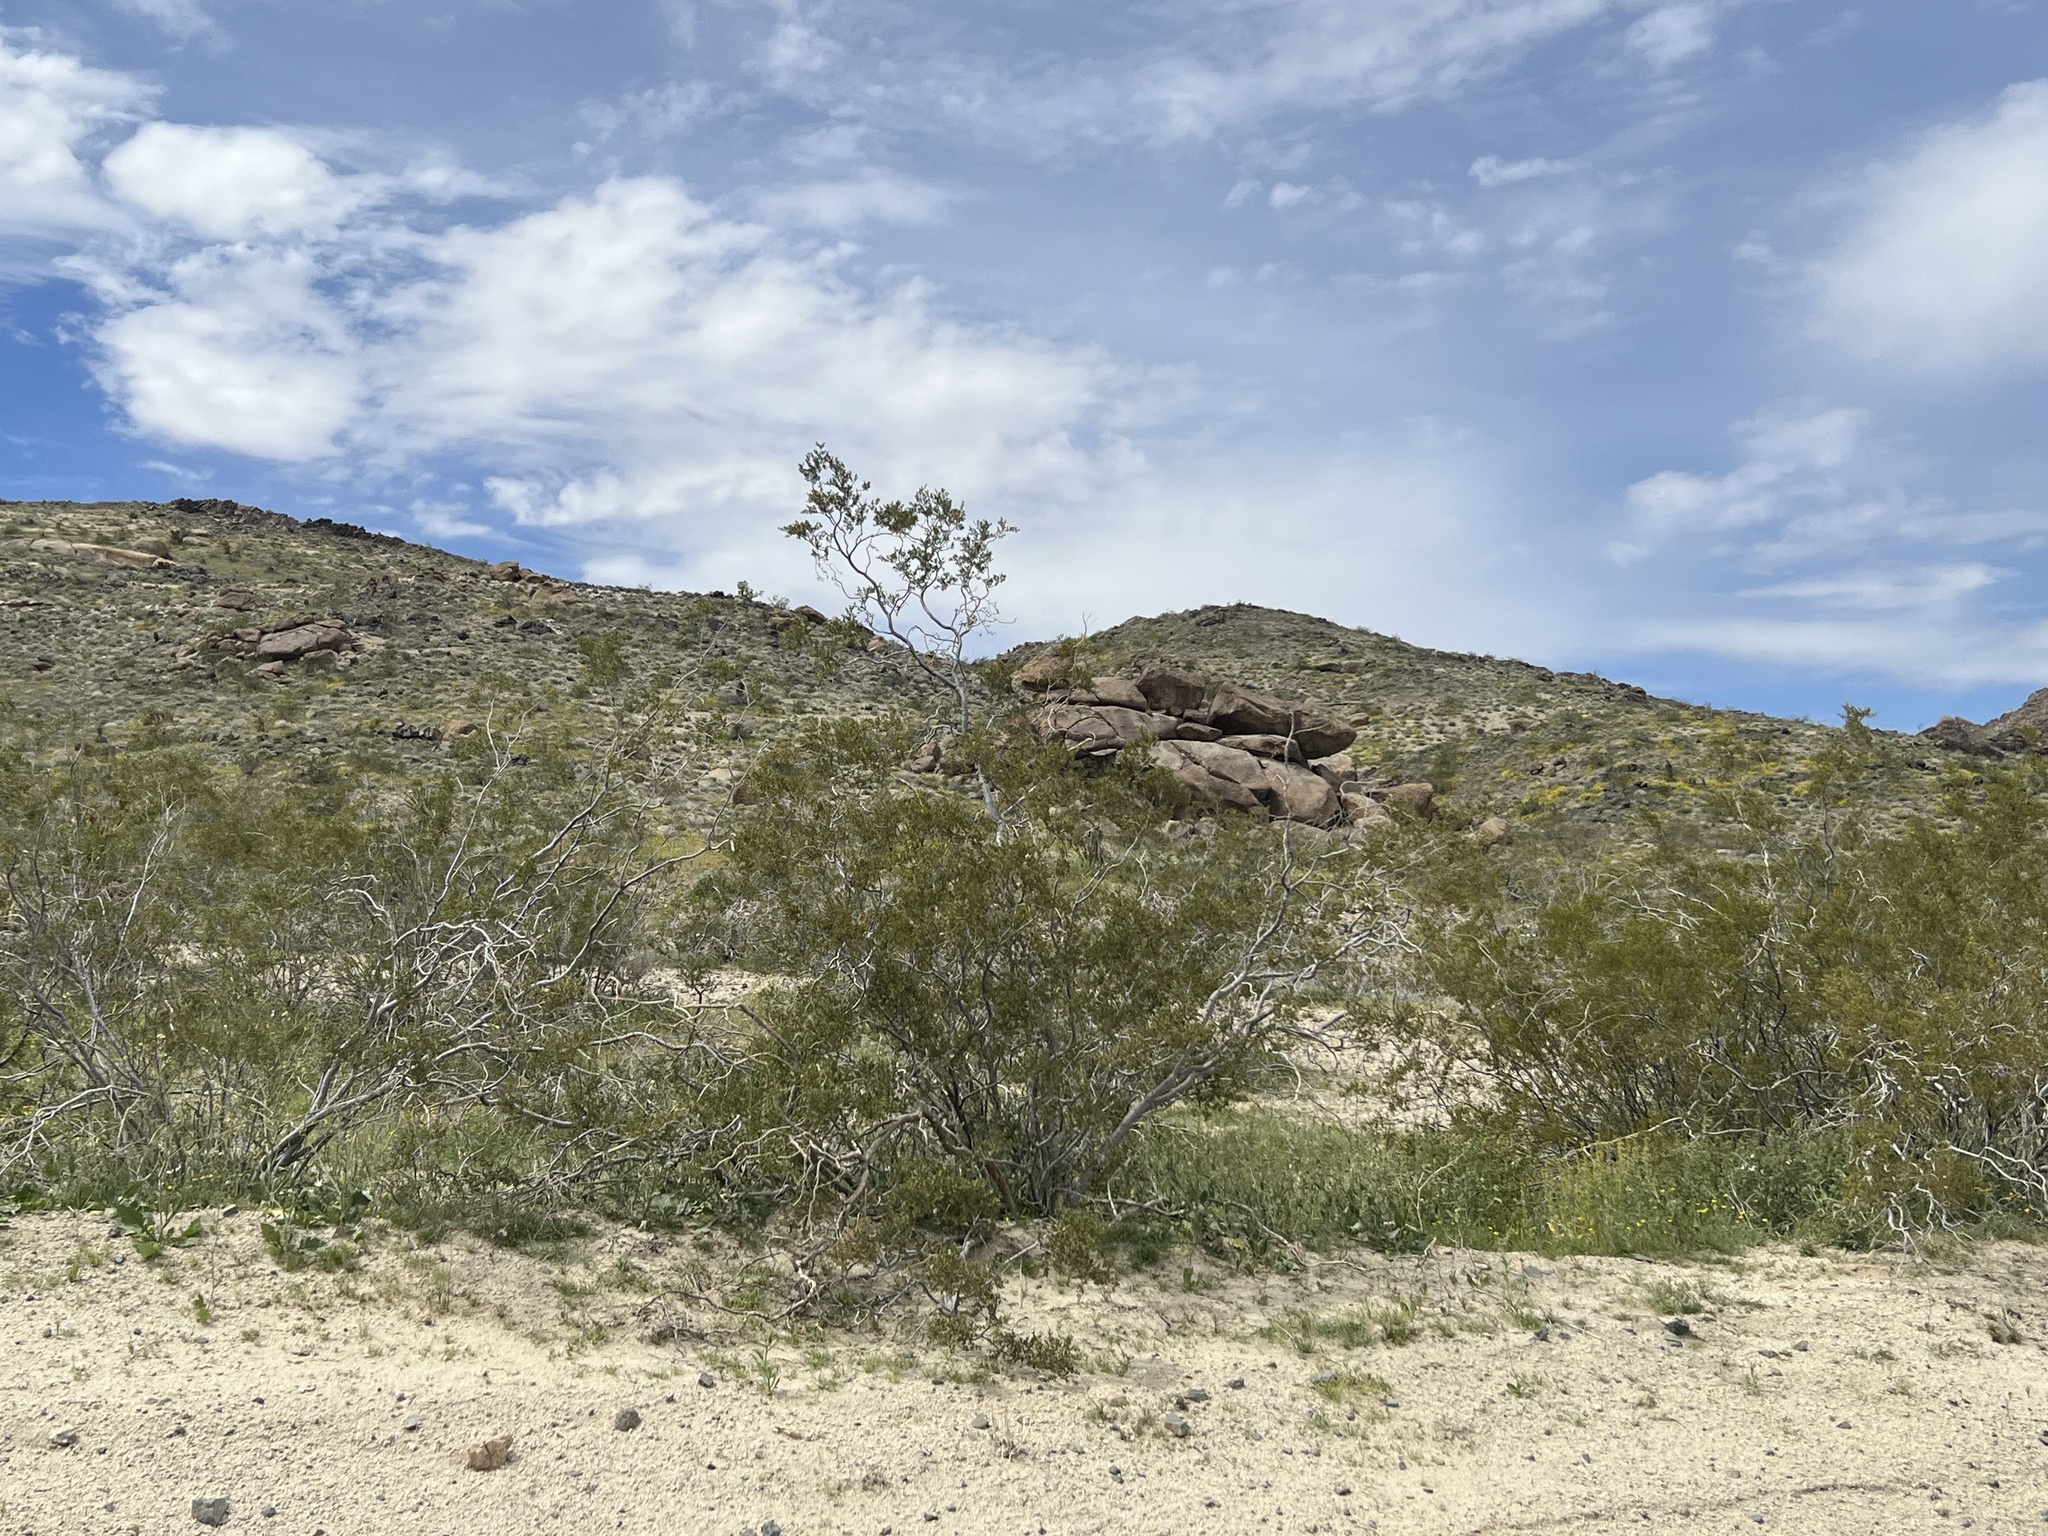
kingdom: Plantae
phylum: Tracheophyta
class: Magnoliopsida
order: Zygophyllales
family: Zygophyllaceae
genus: Larrea
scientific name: Larrea tridentata
